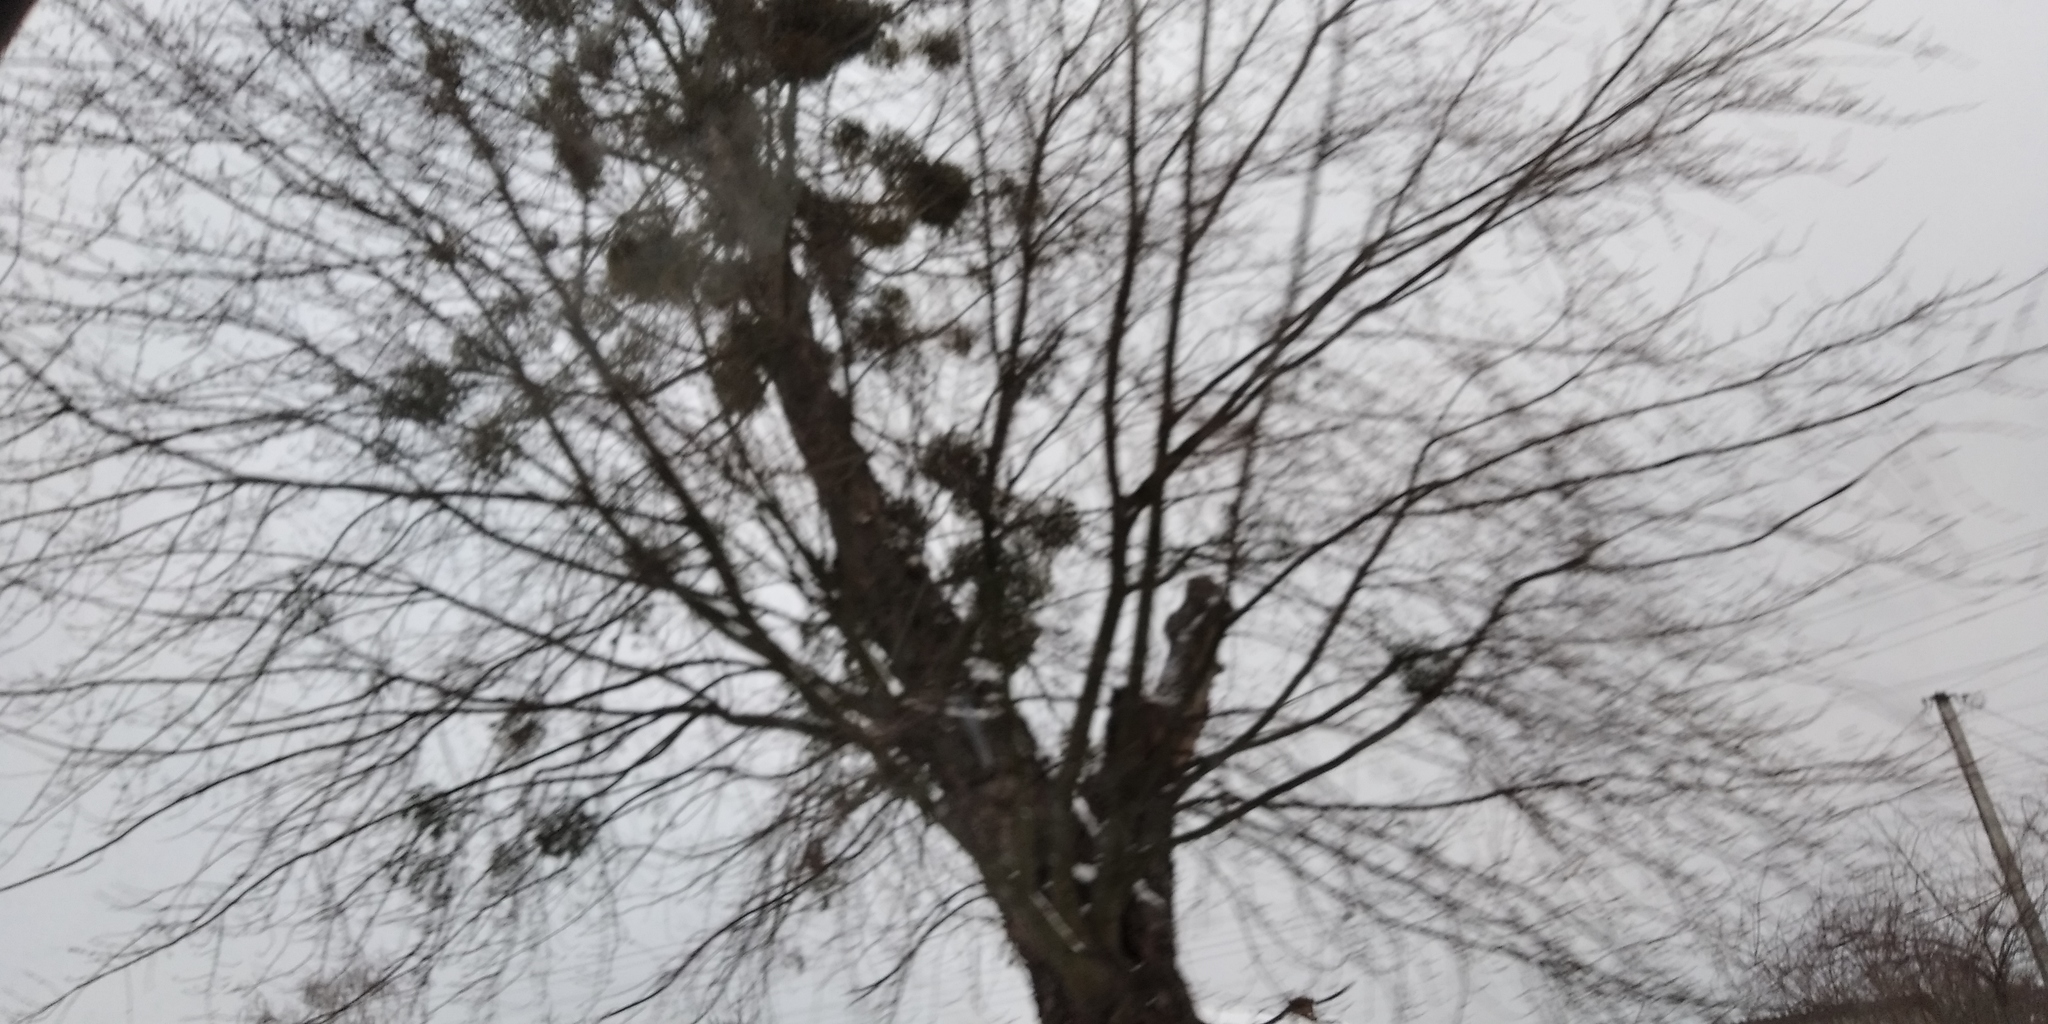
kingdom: Plantae
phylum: Tracheophyta
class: Magnoliopsida
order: Santalales
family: Viscaceae
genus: Viscum
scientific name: Viscum album
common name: Mistletoe
